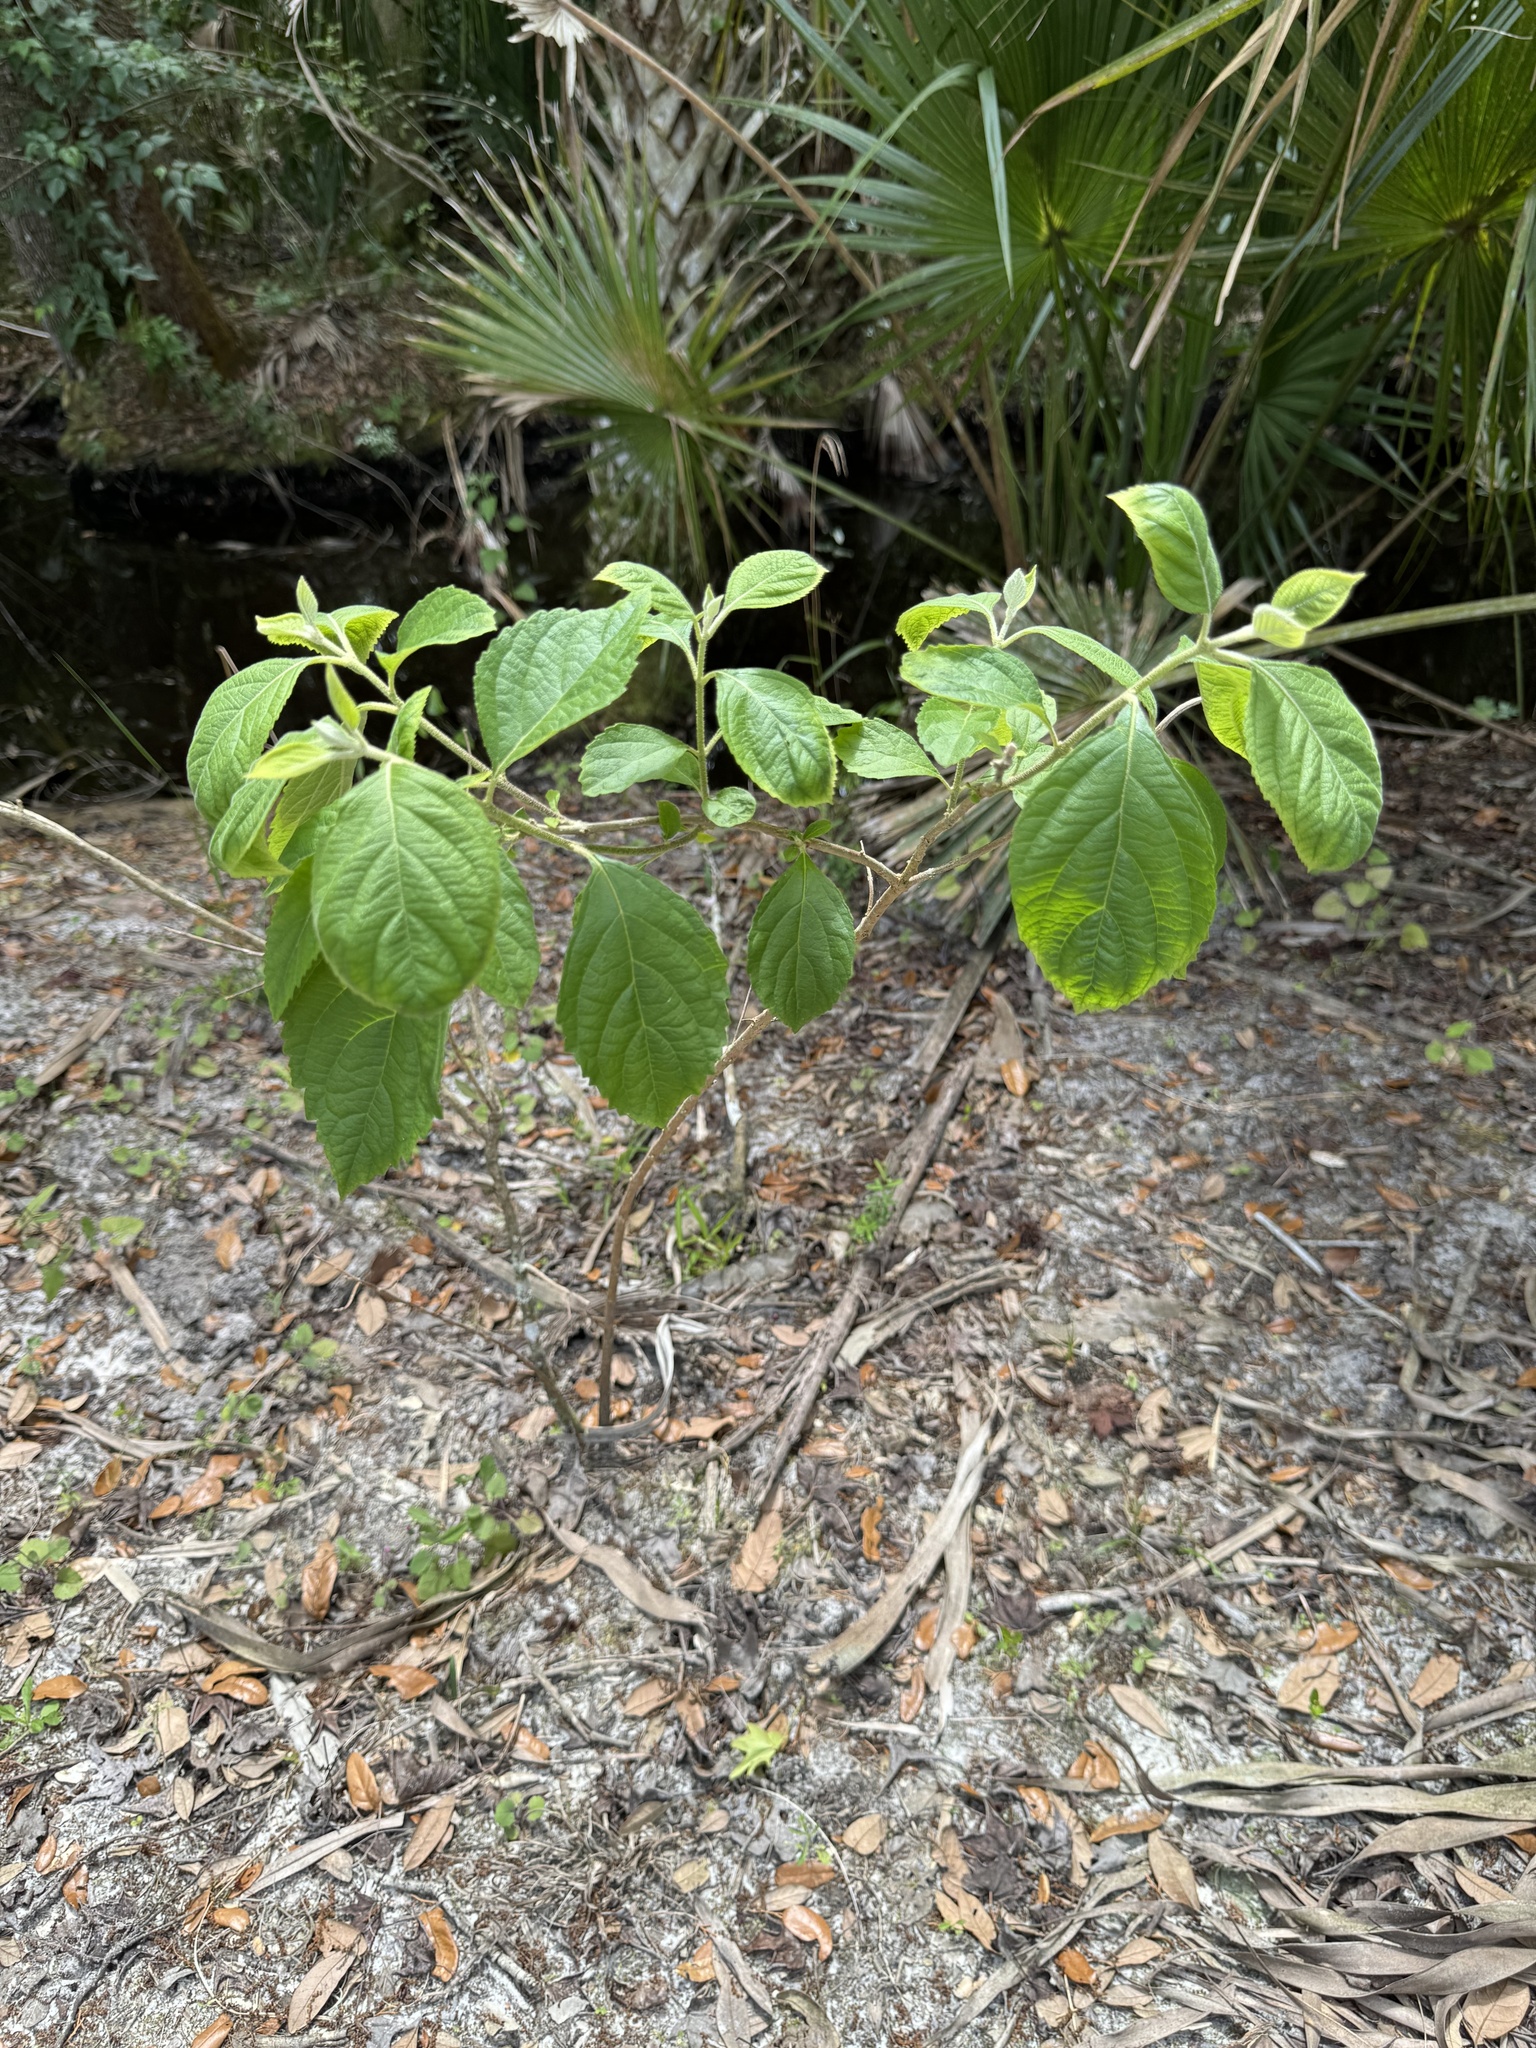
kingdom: Plantae
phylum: Tracheophyta
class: Magnoliopsida
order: Lamiales
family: Lamiaceae
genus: Callicarpa
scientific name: Callicarpa americana
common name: American beautyberry
